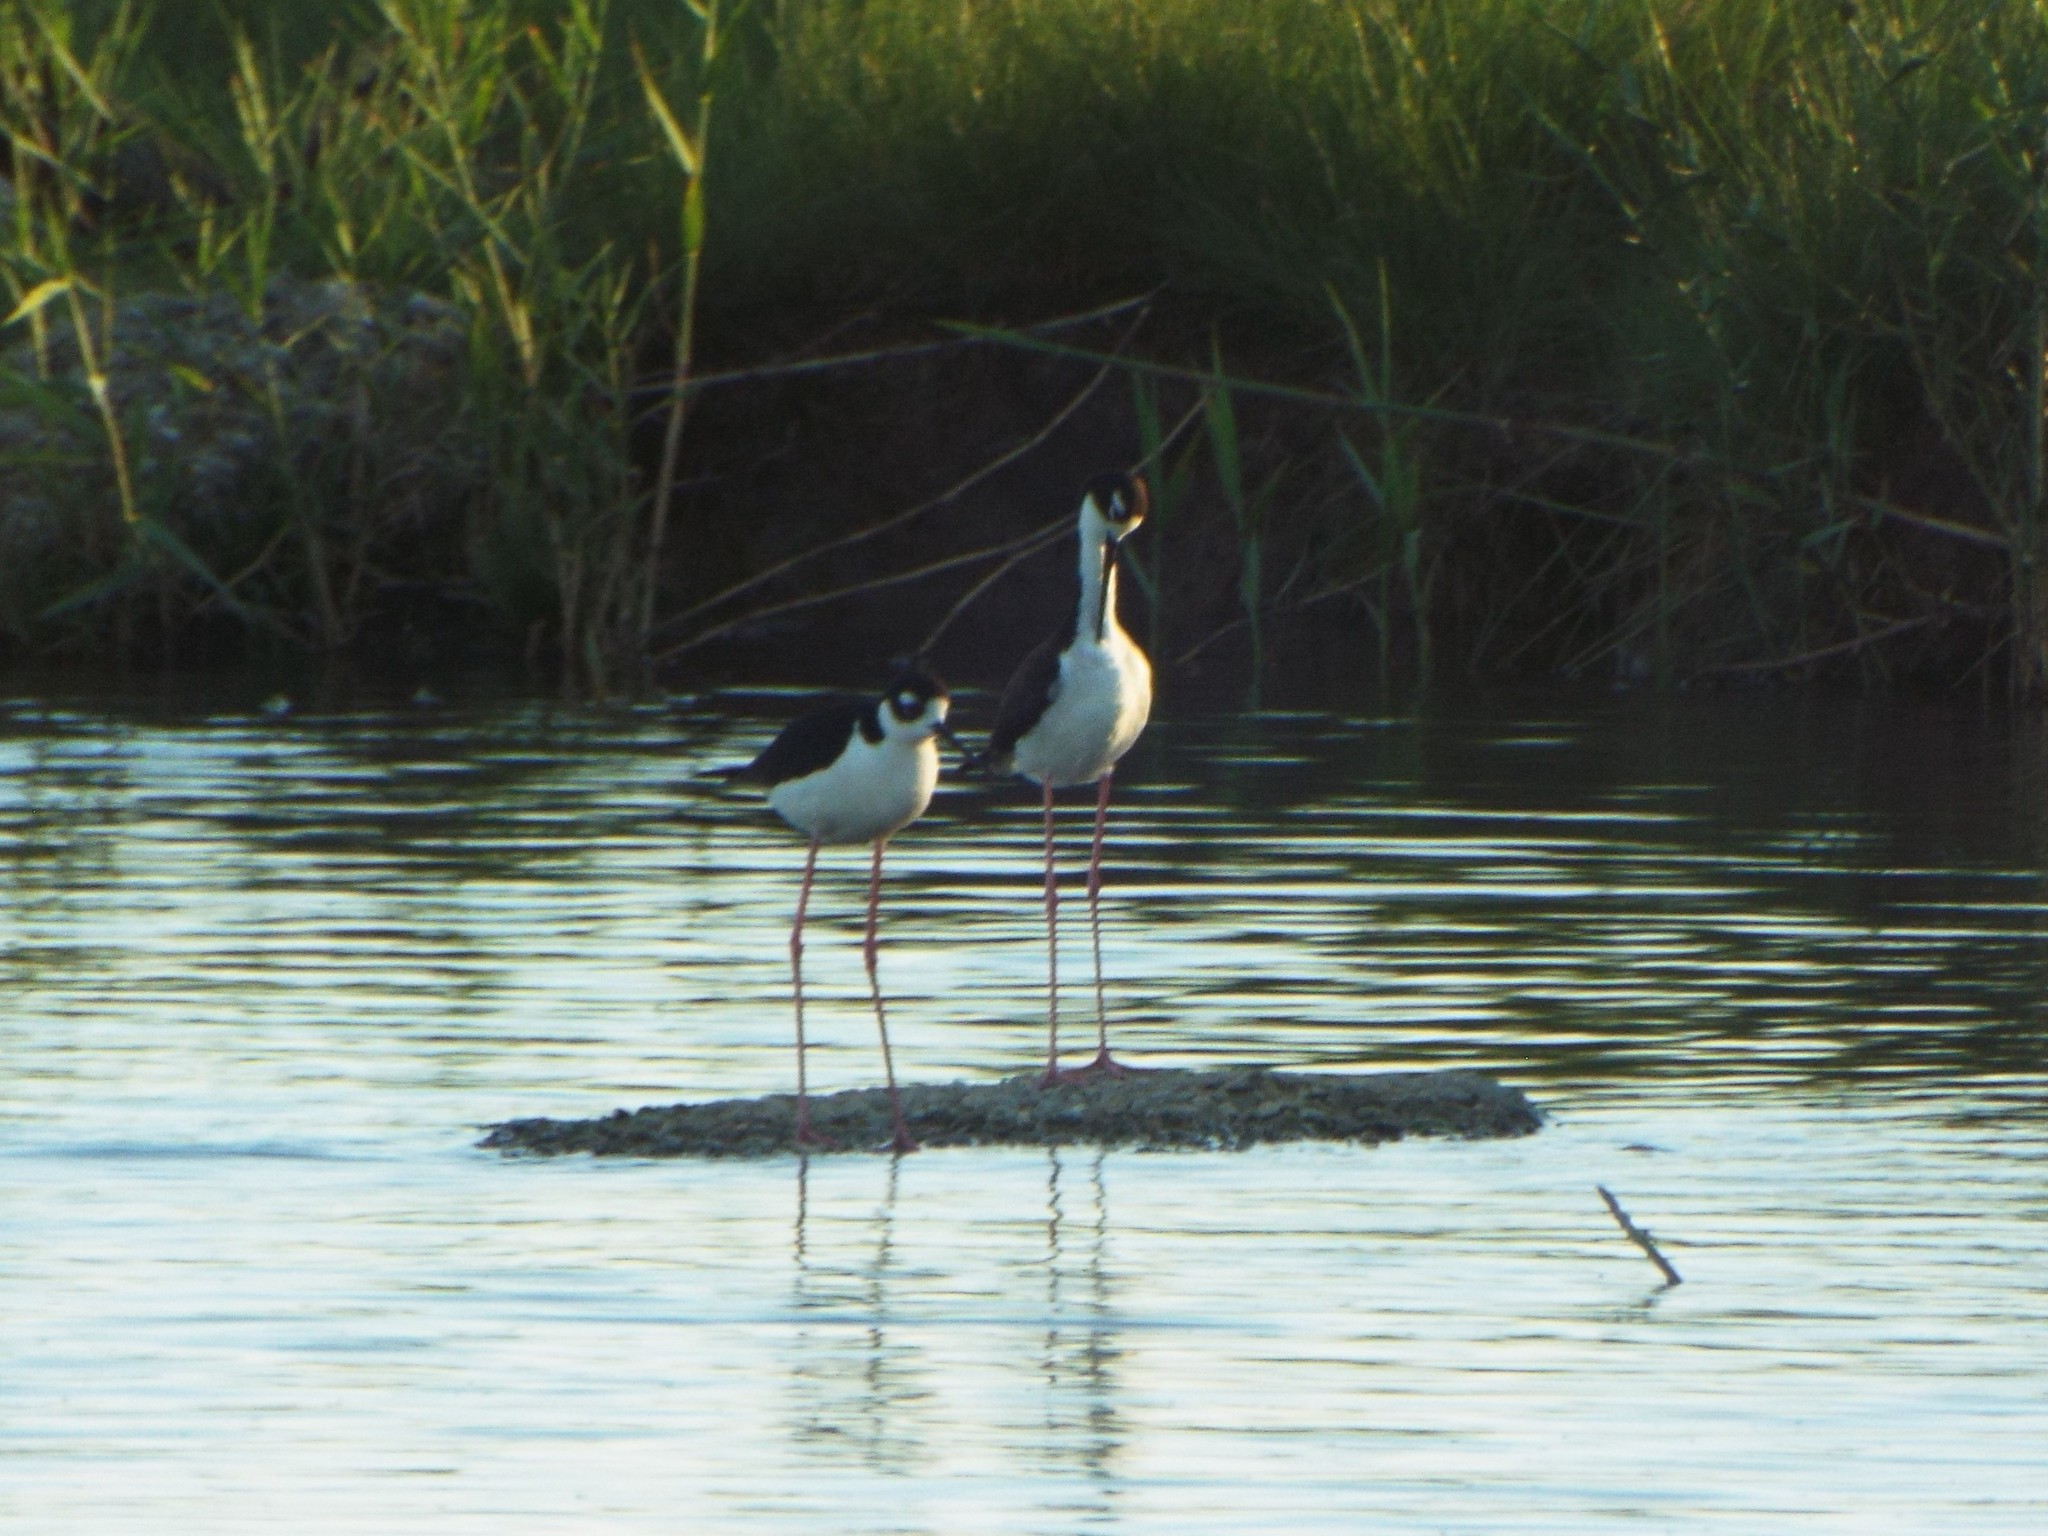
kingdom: Animalia
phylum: Chordata
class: Aves
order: Charadriiformes
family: Recurvirostridae
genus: Himantopus
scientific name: Himantopus mexicanus
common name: Black-necked stilt
